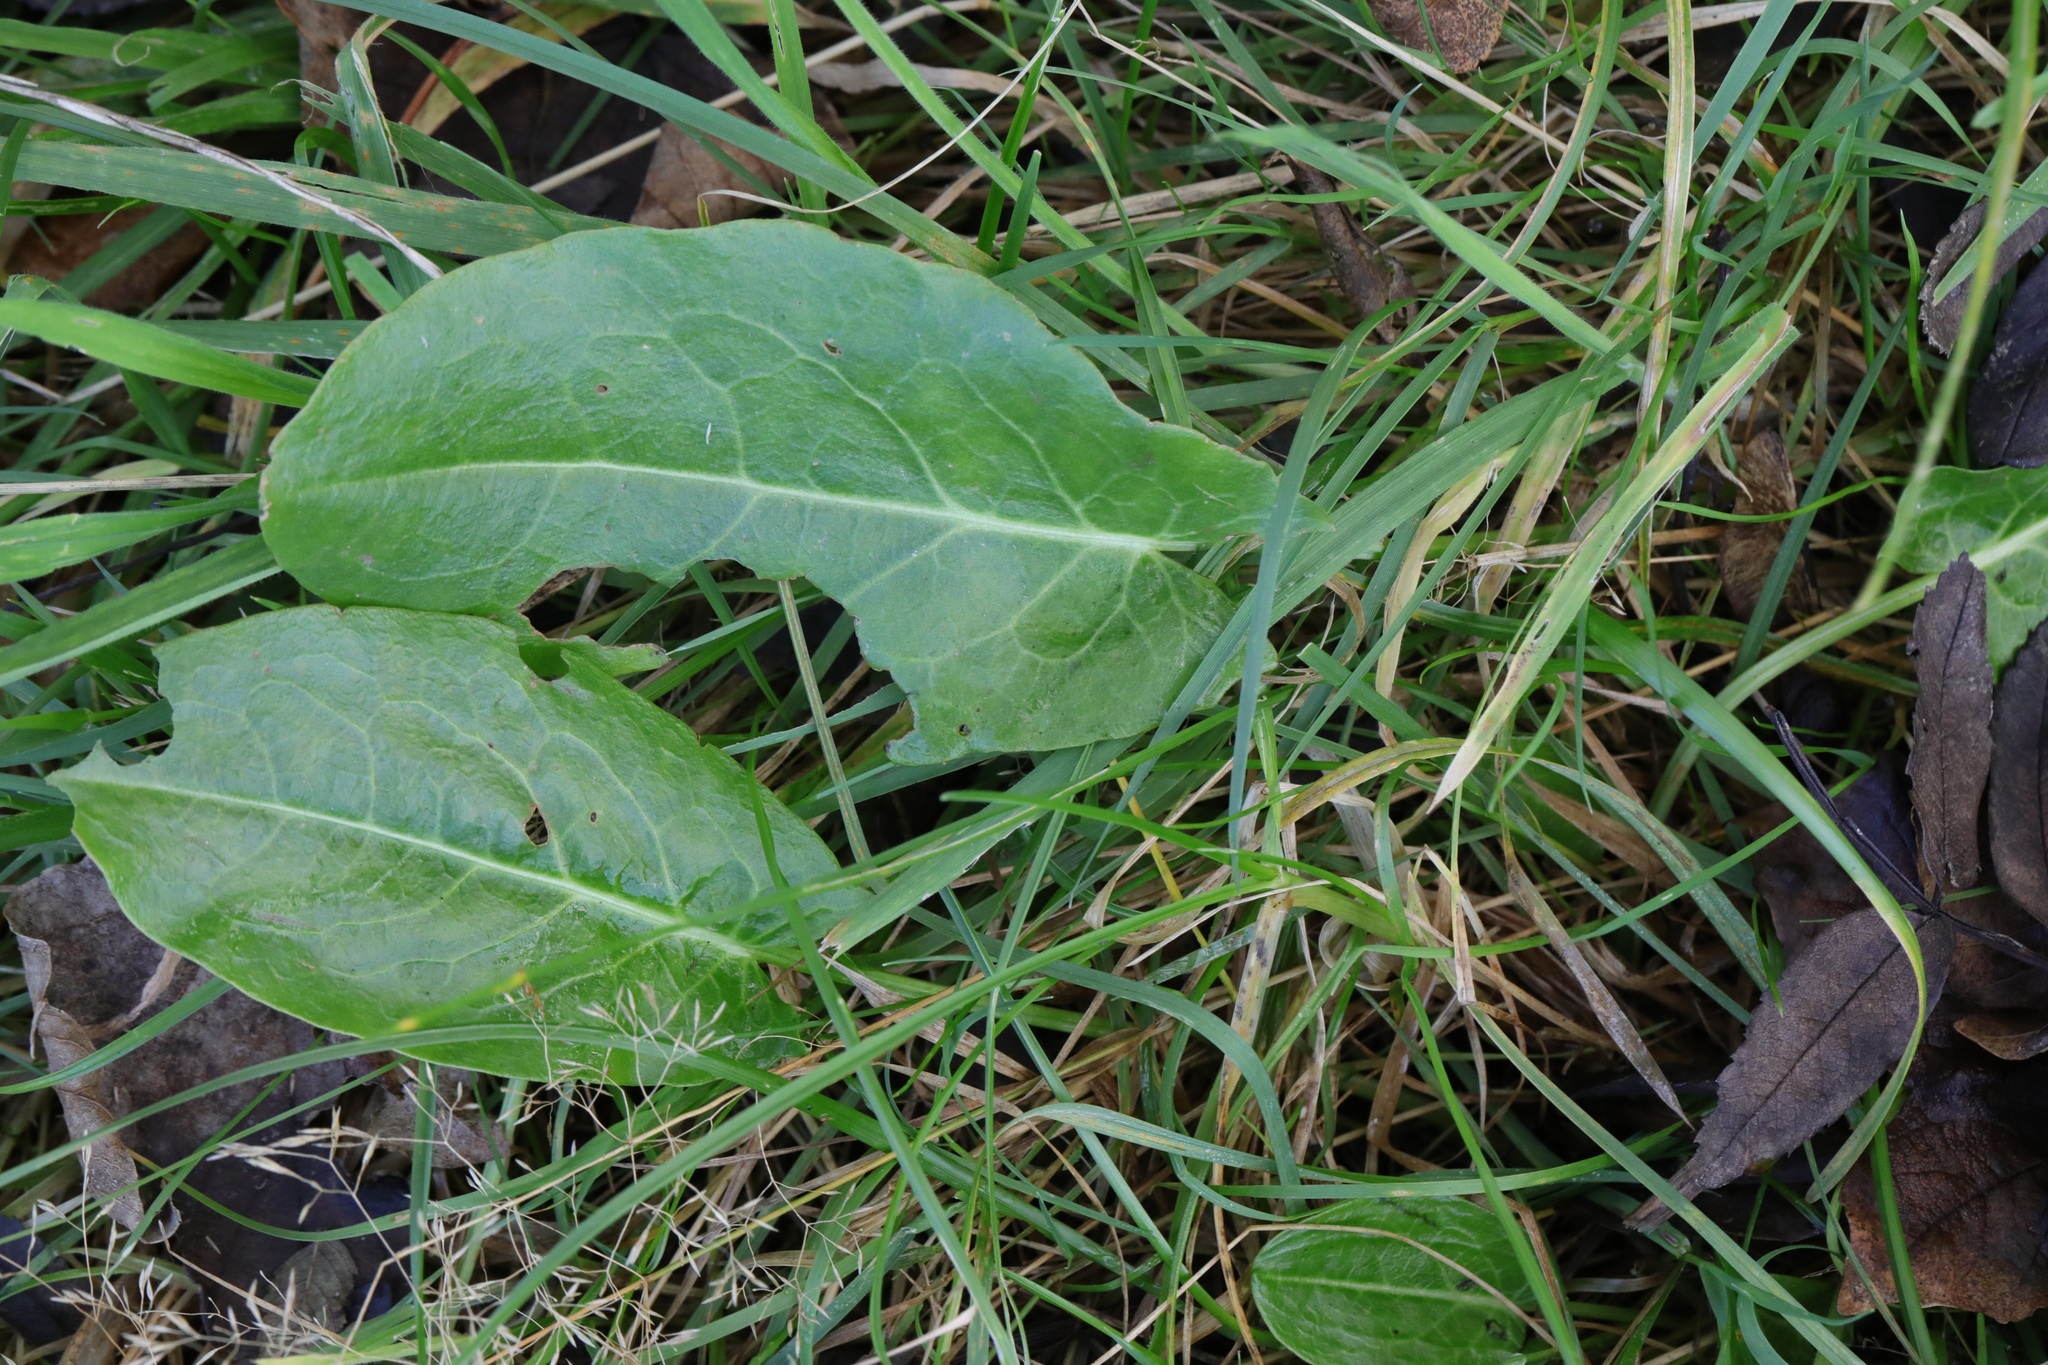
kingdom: Plantae
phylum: Tracheophyta
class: Magnoliopsida
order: Caryophyllales
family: Polygonaceae
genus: Rumex
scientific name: Rumex acetosa
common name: Garden sorrel
